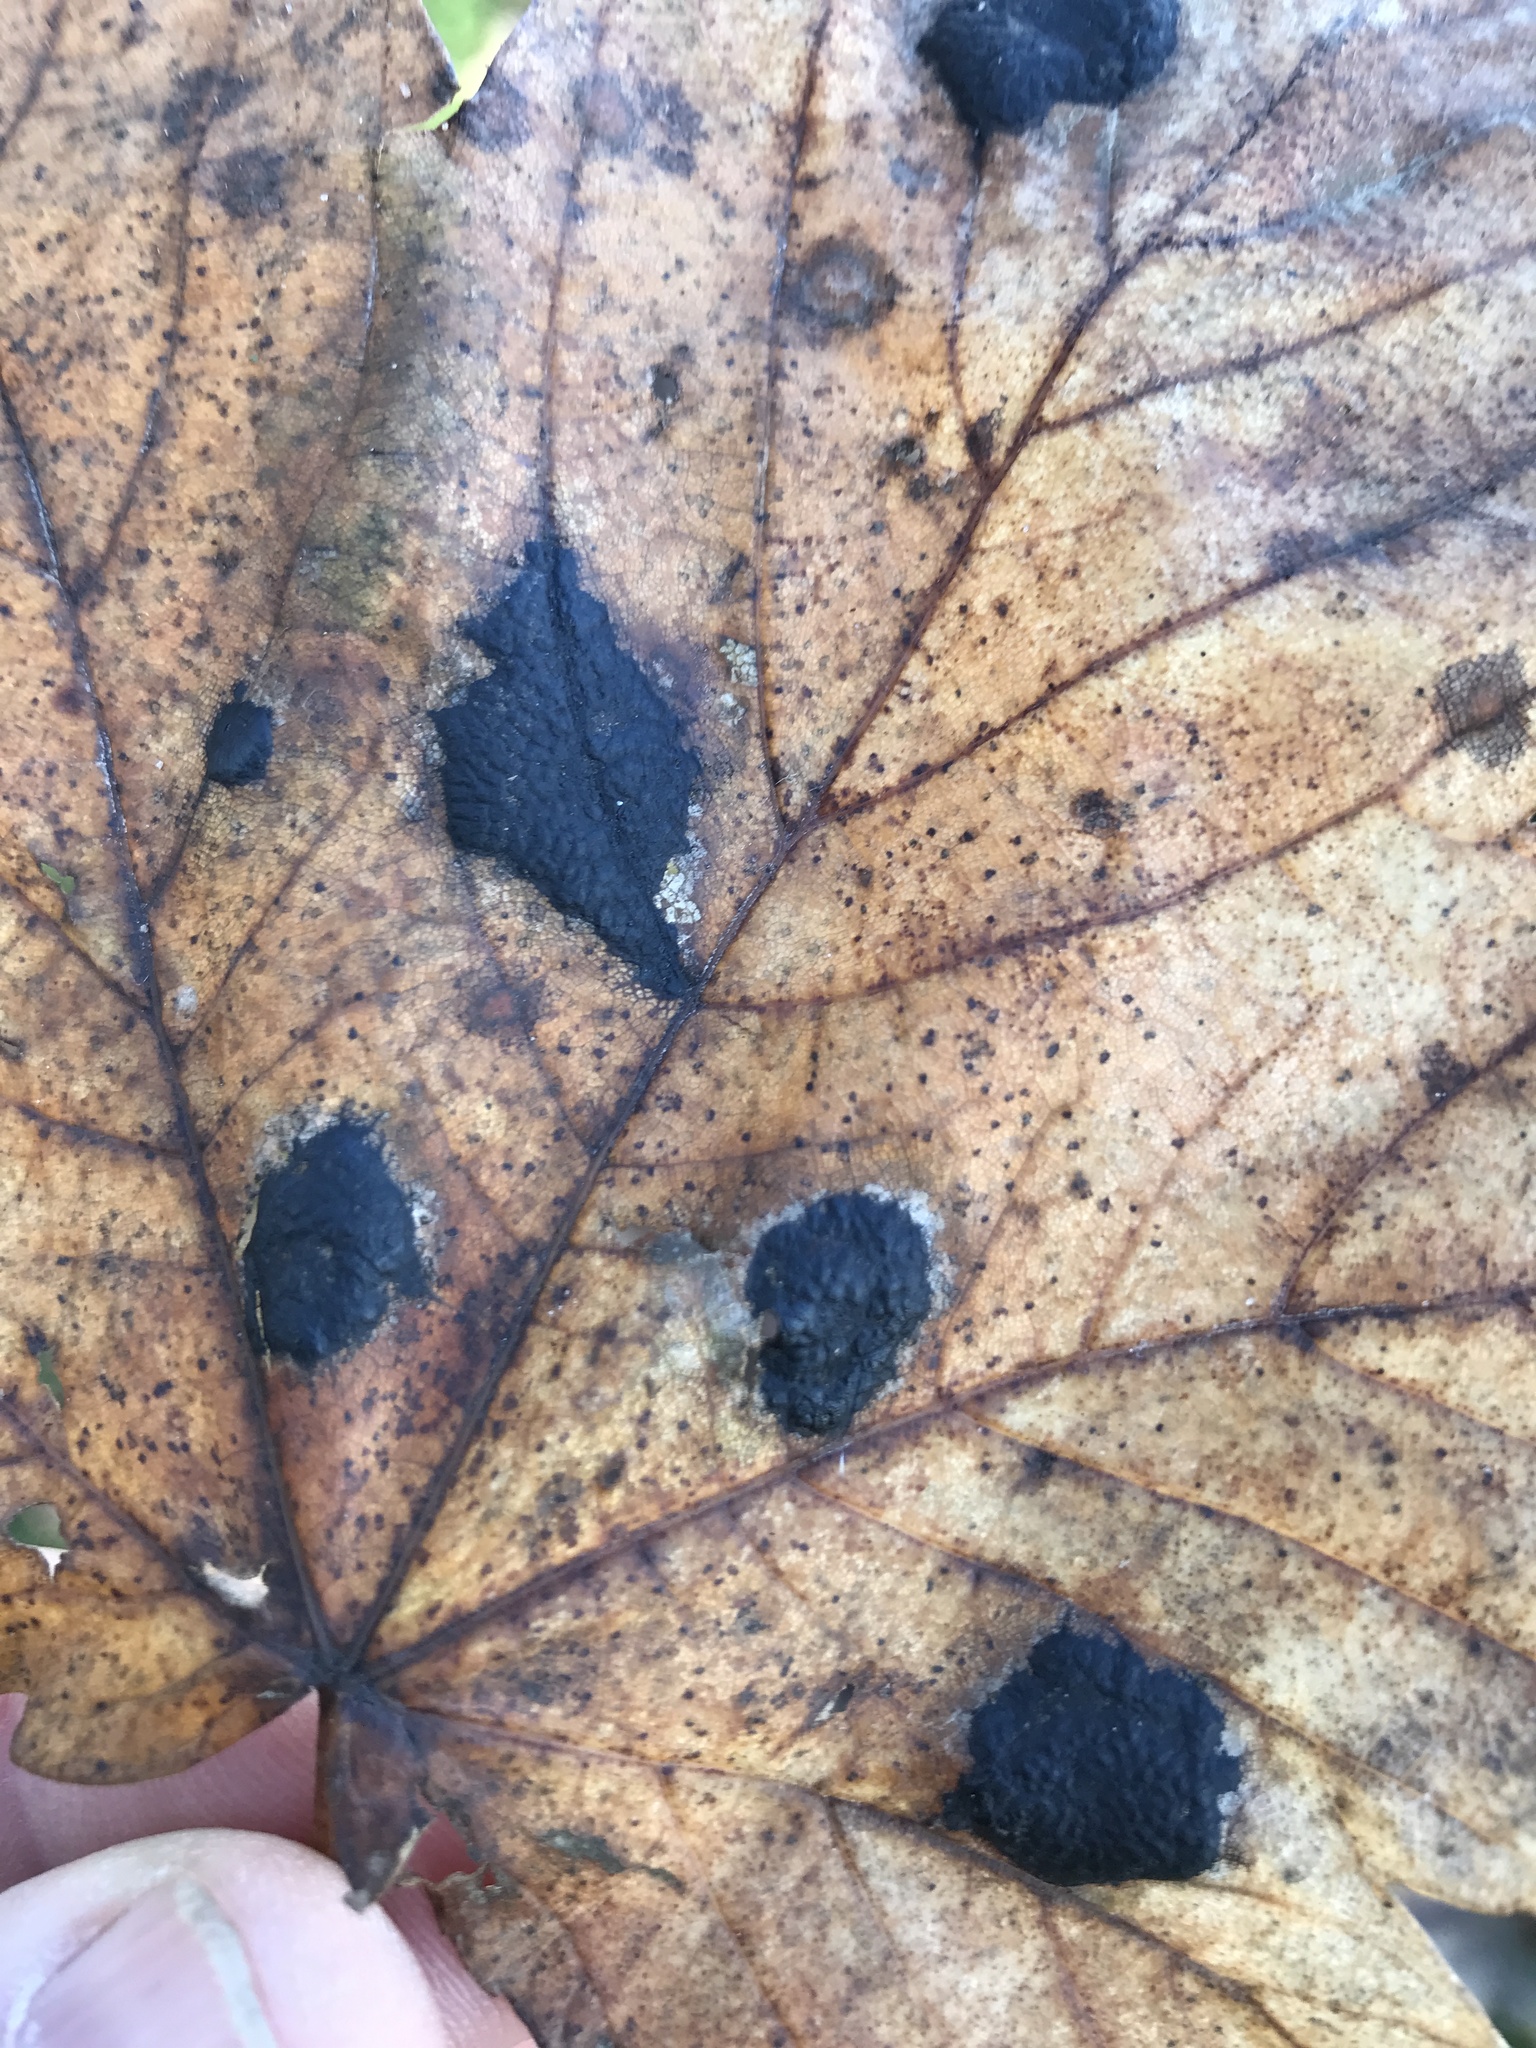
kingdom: Fungi
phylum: Ascomycota
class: Leotiomycetes
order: Rhytismatales
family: Rhytismataceae
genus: Rhytisma
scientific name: Rhytisma acerinum
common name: European tar spot
